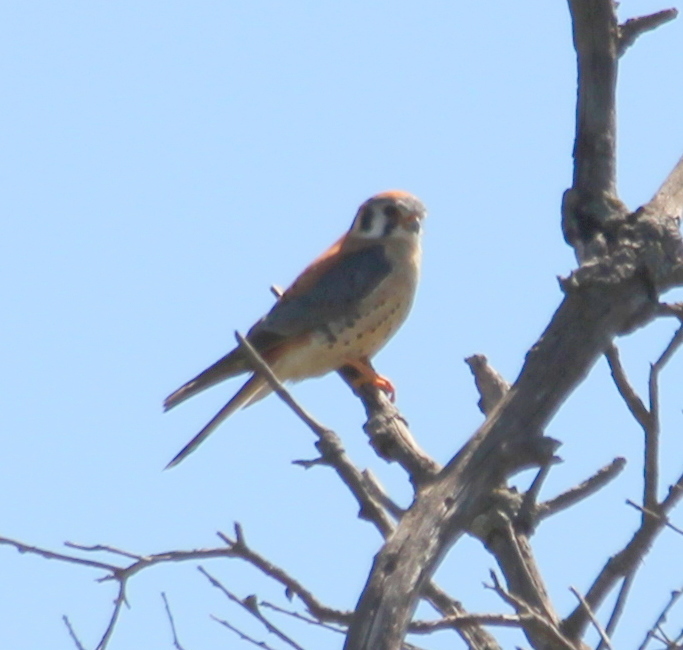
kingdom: Animalia
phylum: Chordata
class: Aves
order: Falconiformes
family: Falconidae
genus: Falco
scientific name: Falco sparverius
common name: American kestrel
